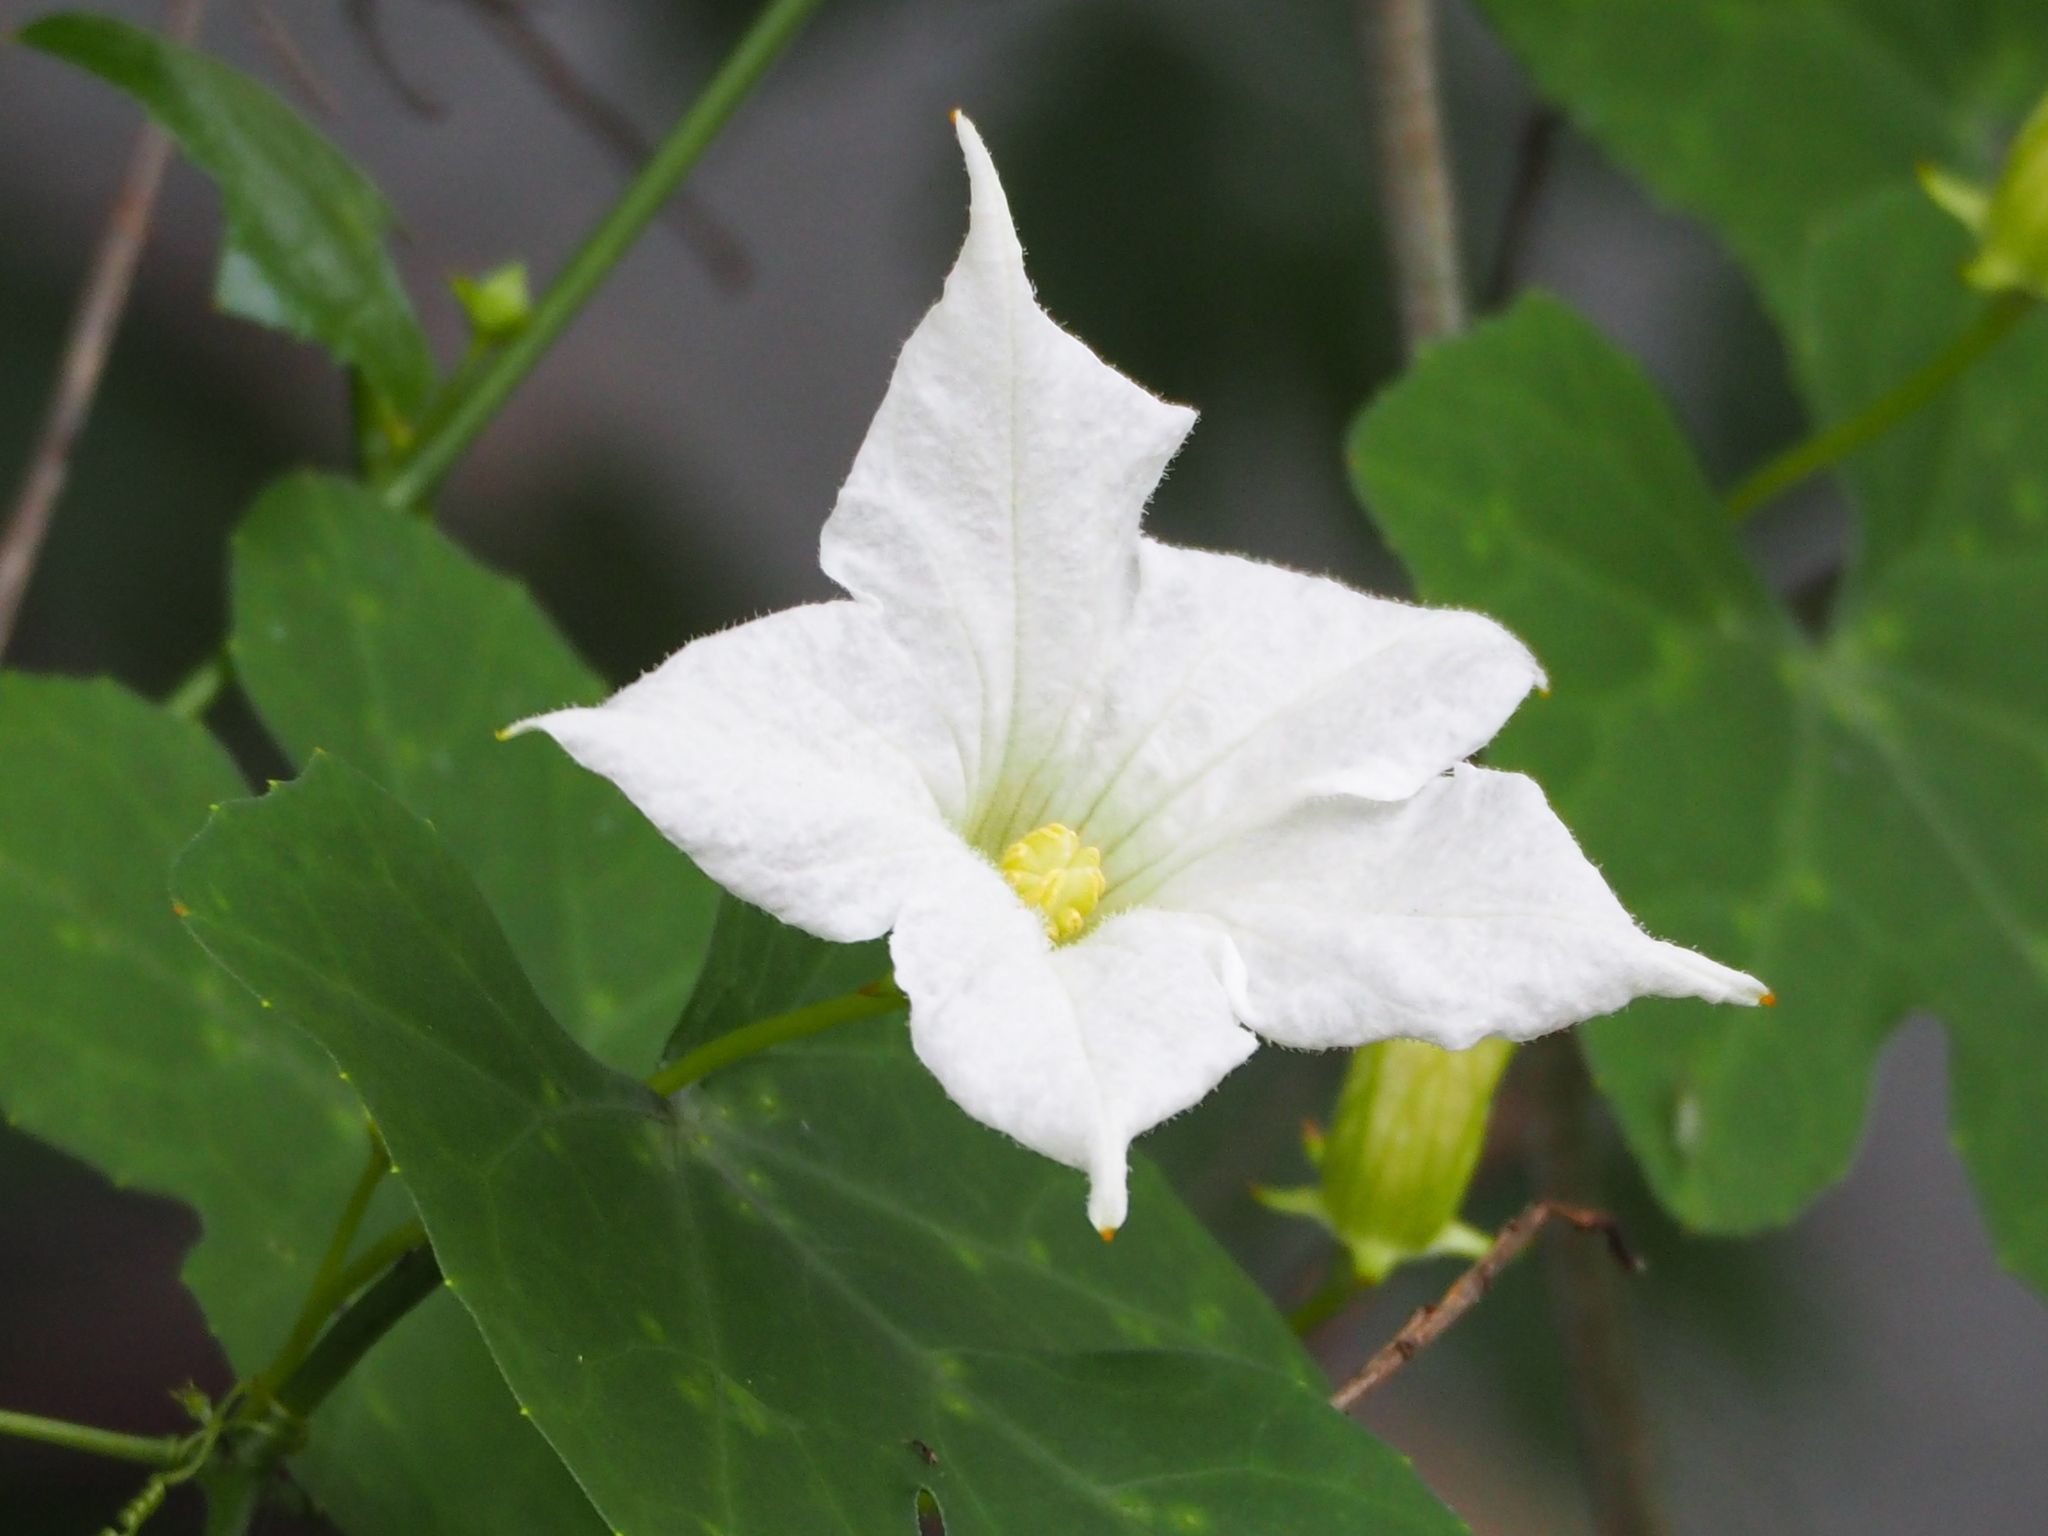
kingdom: Plantae
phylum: Tracheophyta
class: Magnoliopsida
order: Cucurbitales
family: Cucurbitaceae
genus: Coccinia
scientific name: Coccinia grandis
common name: Ivy gourd
